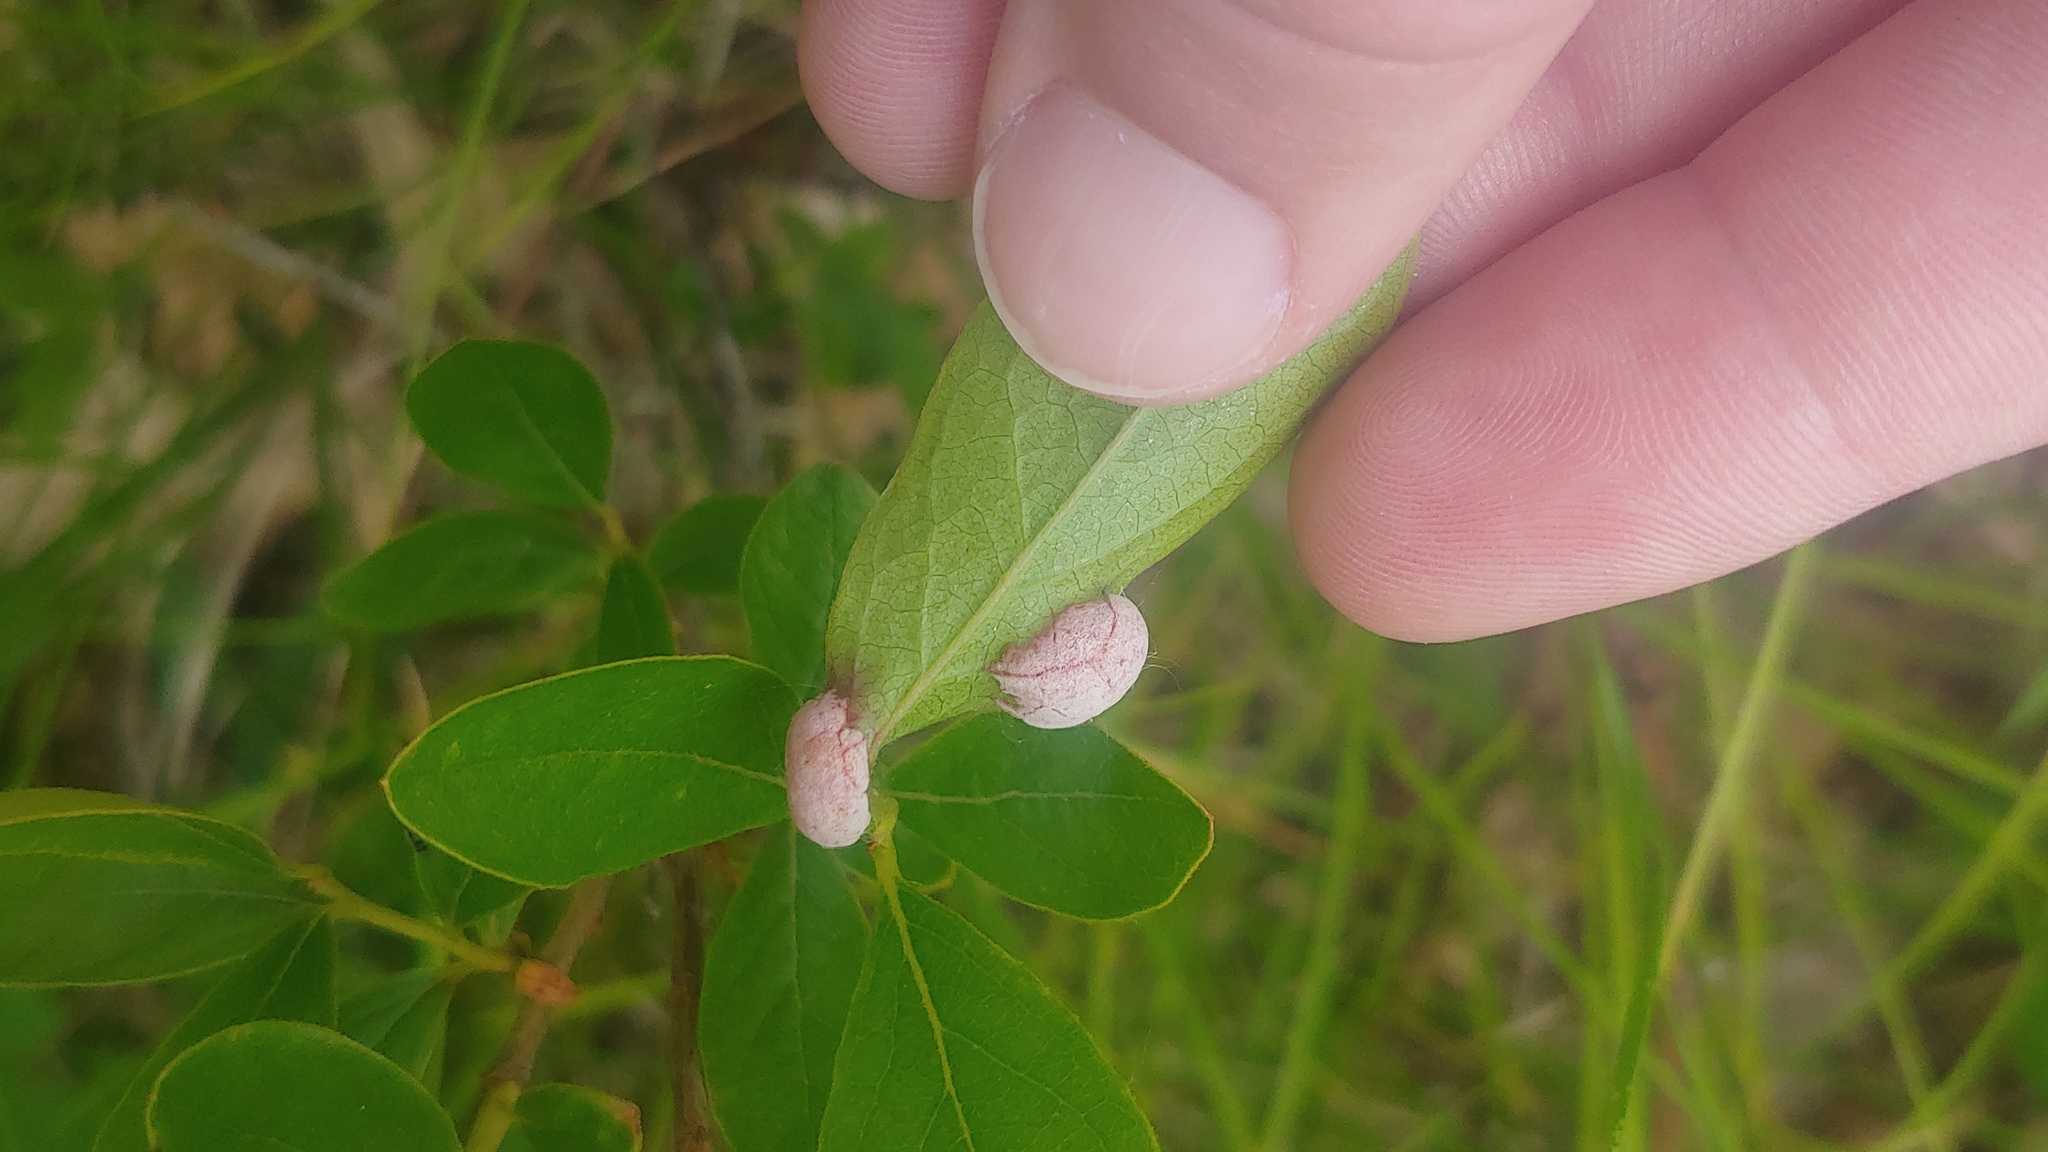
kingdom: Fungi
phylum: Basidiomycota
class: Exobasidiomycetes
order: Exobasidiales
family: Exobasidiaceae
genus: Exobasidium
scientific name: Exobasidium vaccinii
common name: Cowberry redleaf
